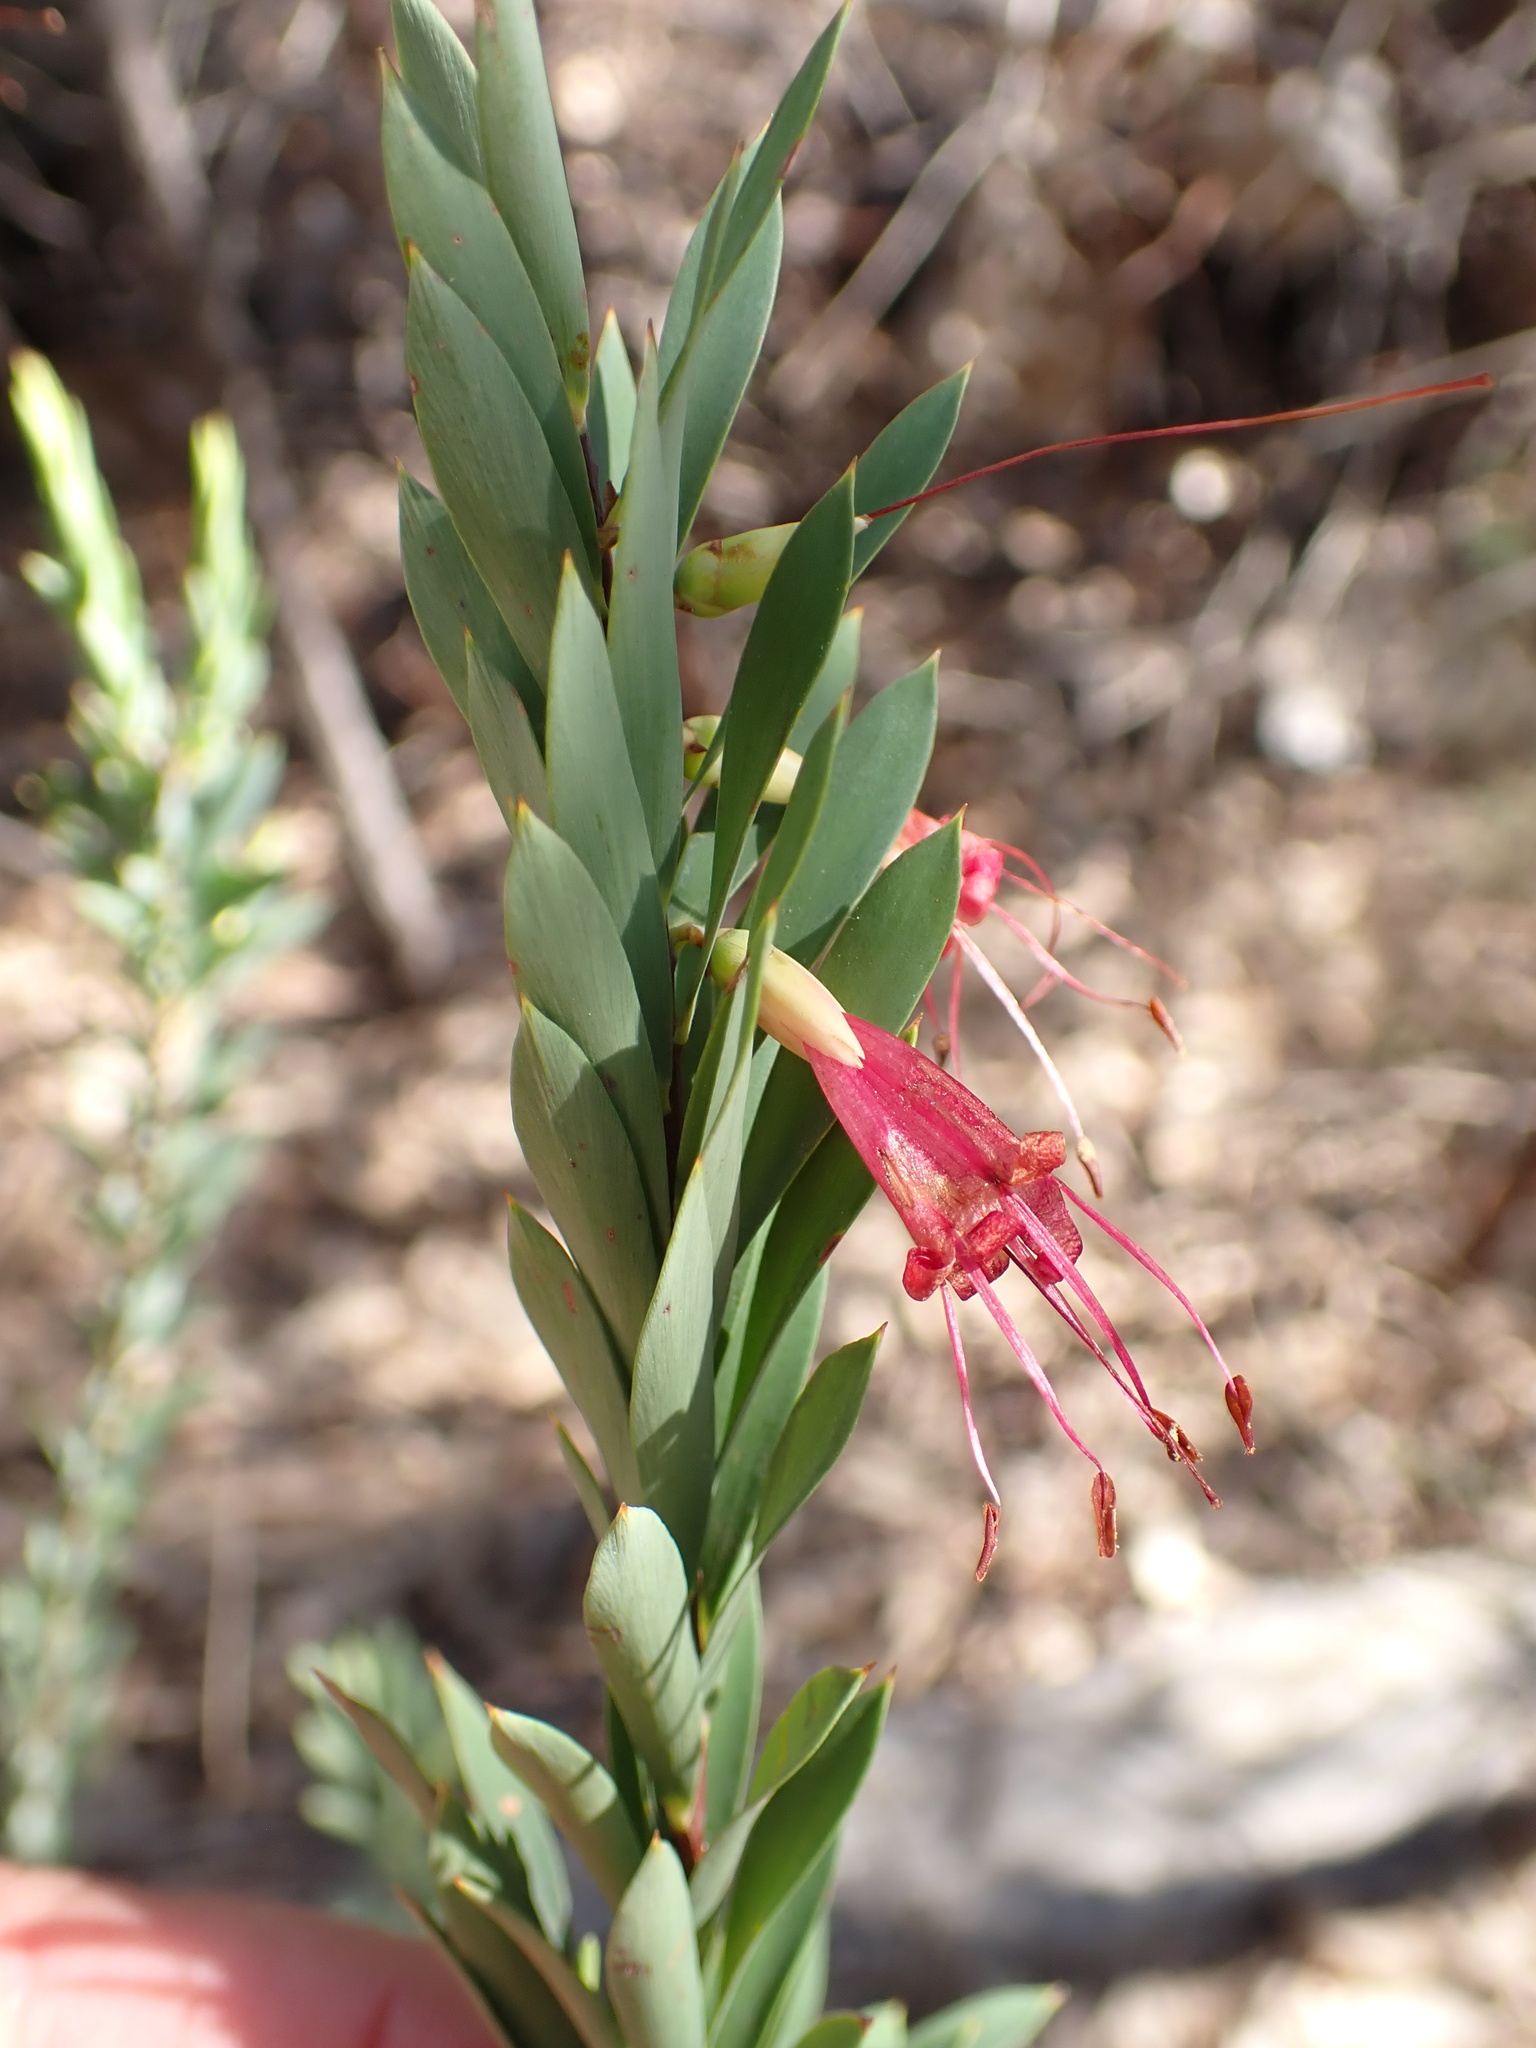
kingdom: Plantae
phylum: Tracheophyta
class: Magnoliopsida
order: Ericales
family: Ericaceae
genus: Styphelia
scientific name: Styphelia triflora
